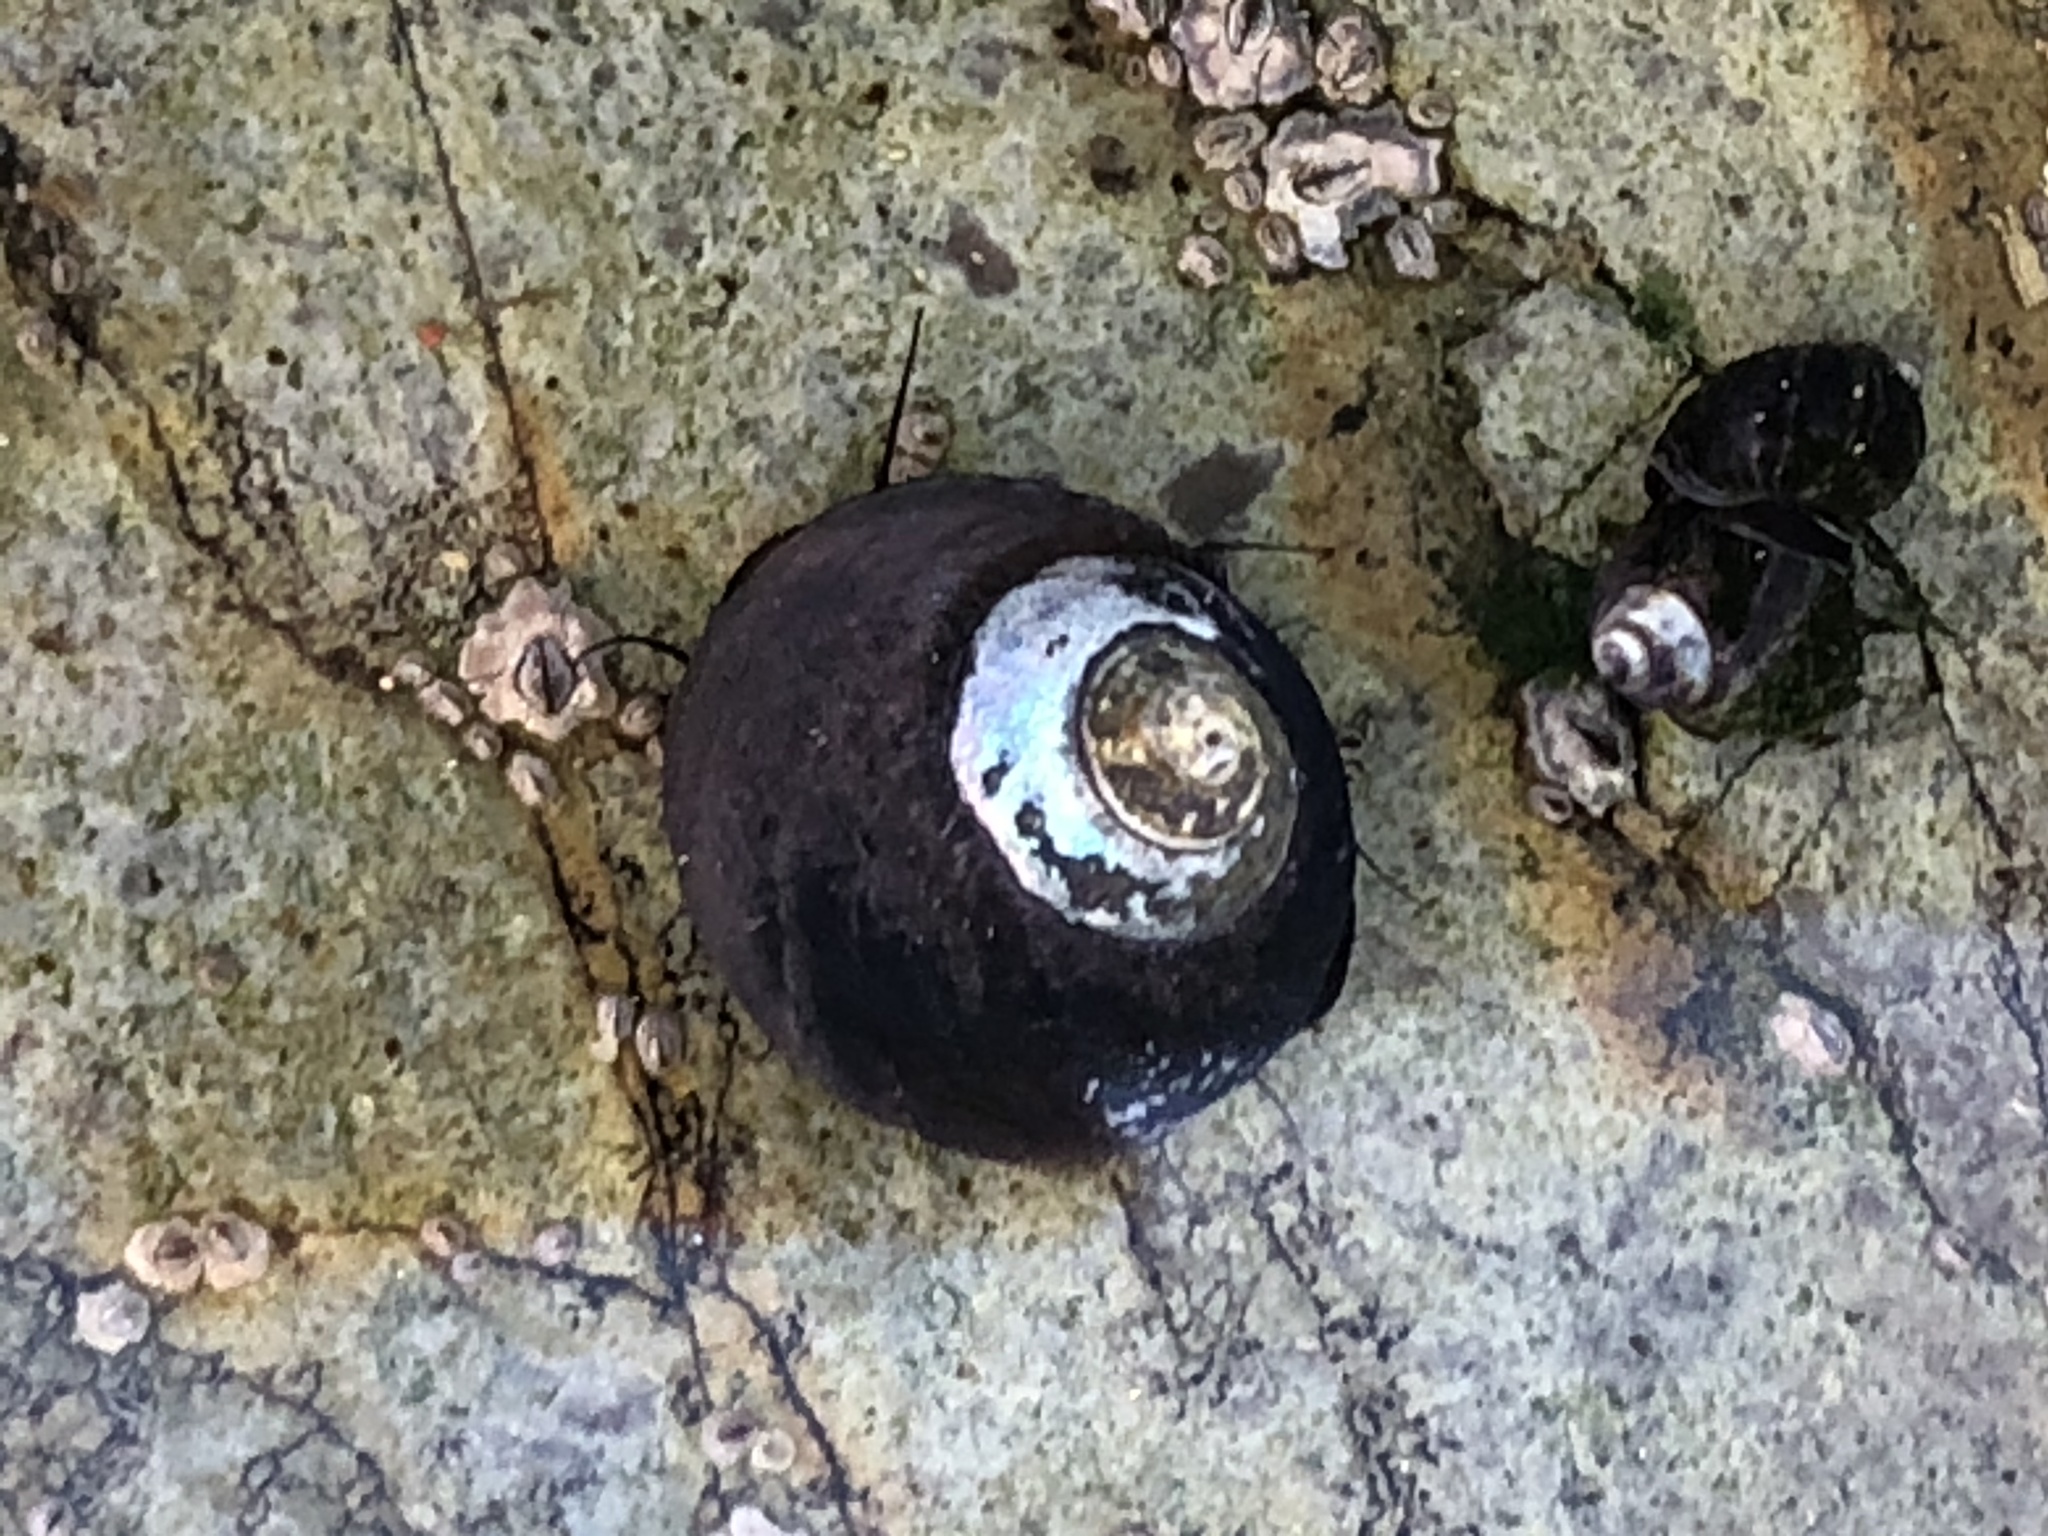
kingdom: Animalia
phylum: Mollusca
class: Gastropoda
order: Trochida
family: Tegulidae
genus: Tegula
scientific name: Tegula funebralis
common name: Black tegula
